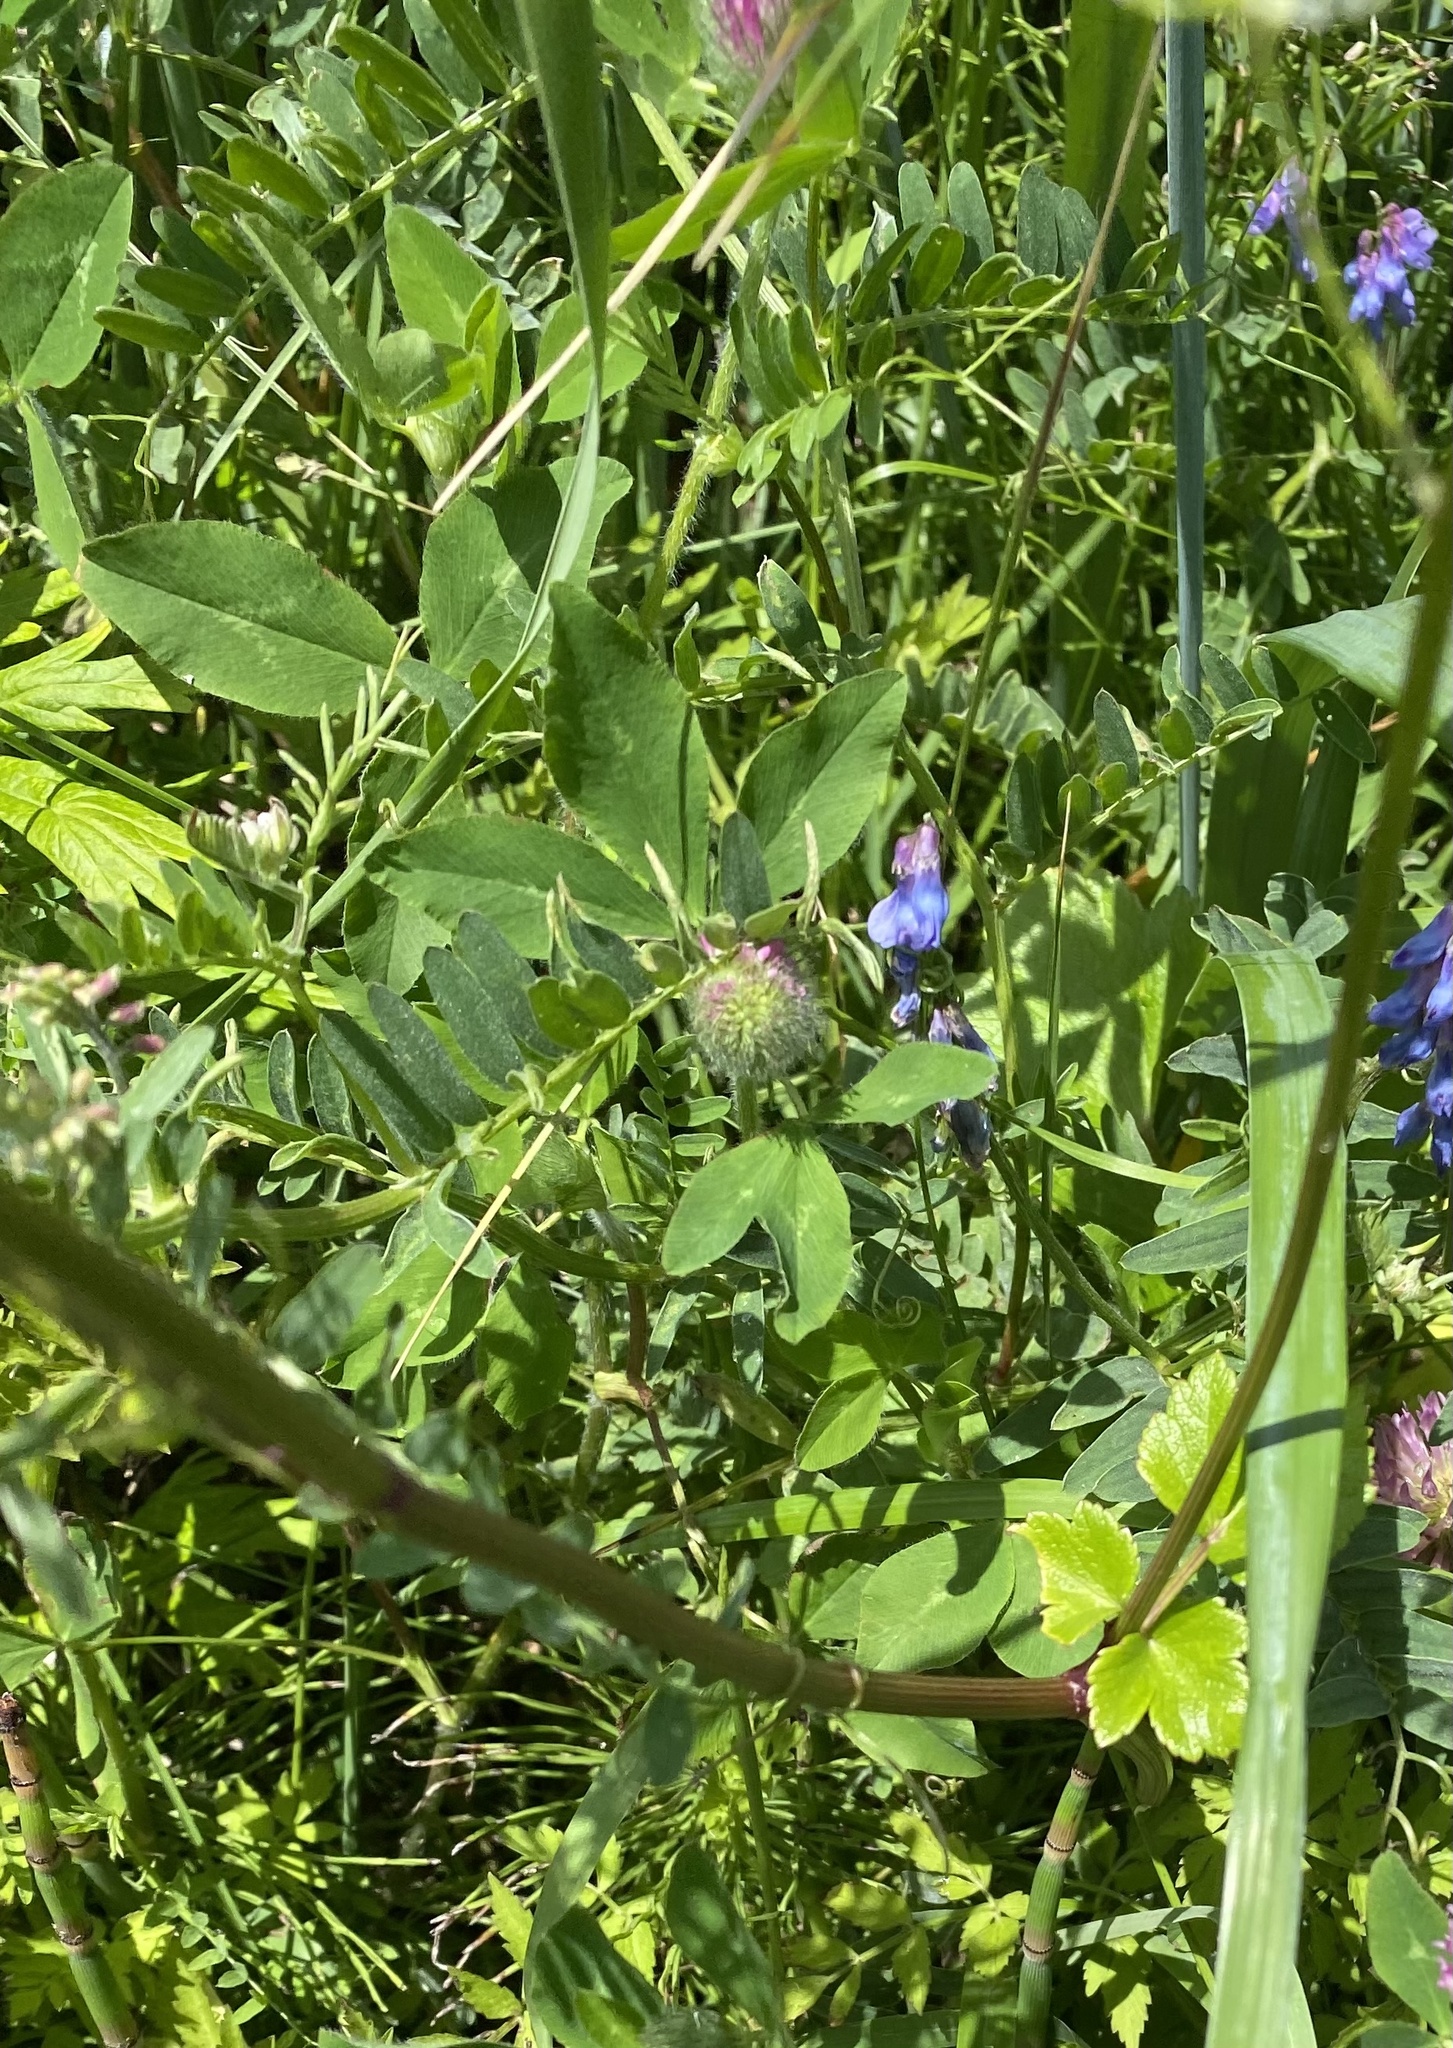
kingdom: Plantae
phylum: Tracheophyta
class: Magnoliopsida
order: Fabales
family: Fabaceae
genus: Trifolium
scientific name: Trifolium pratense
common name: Red clover
